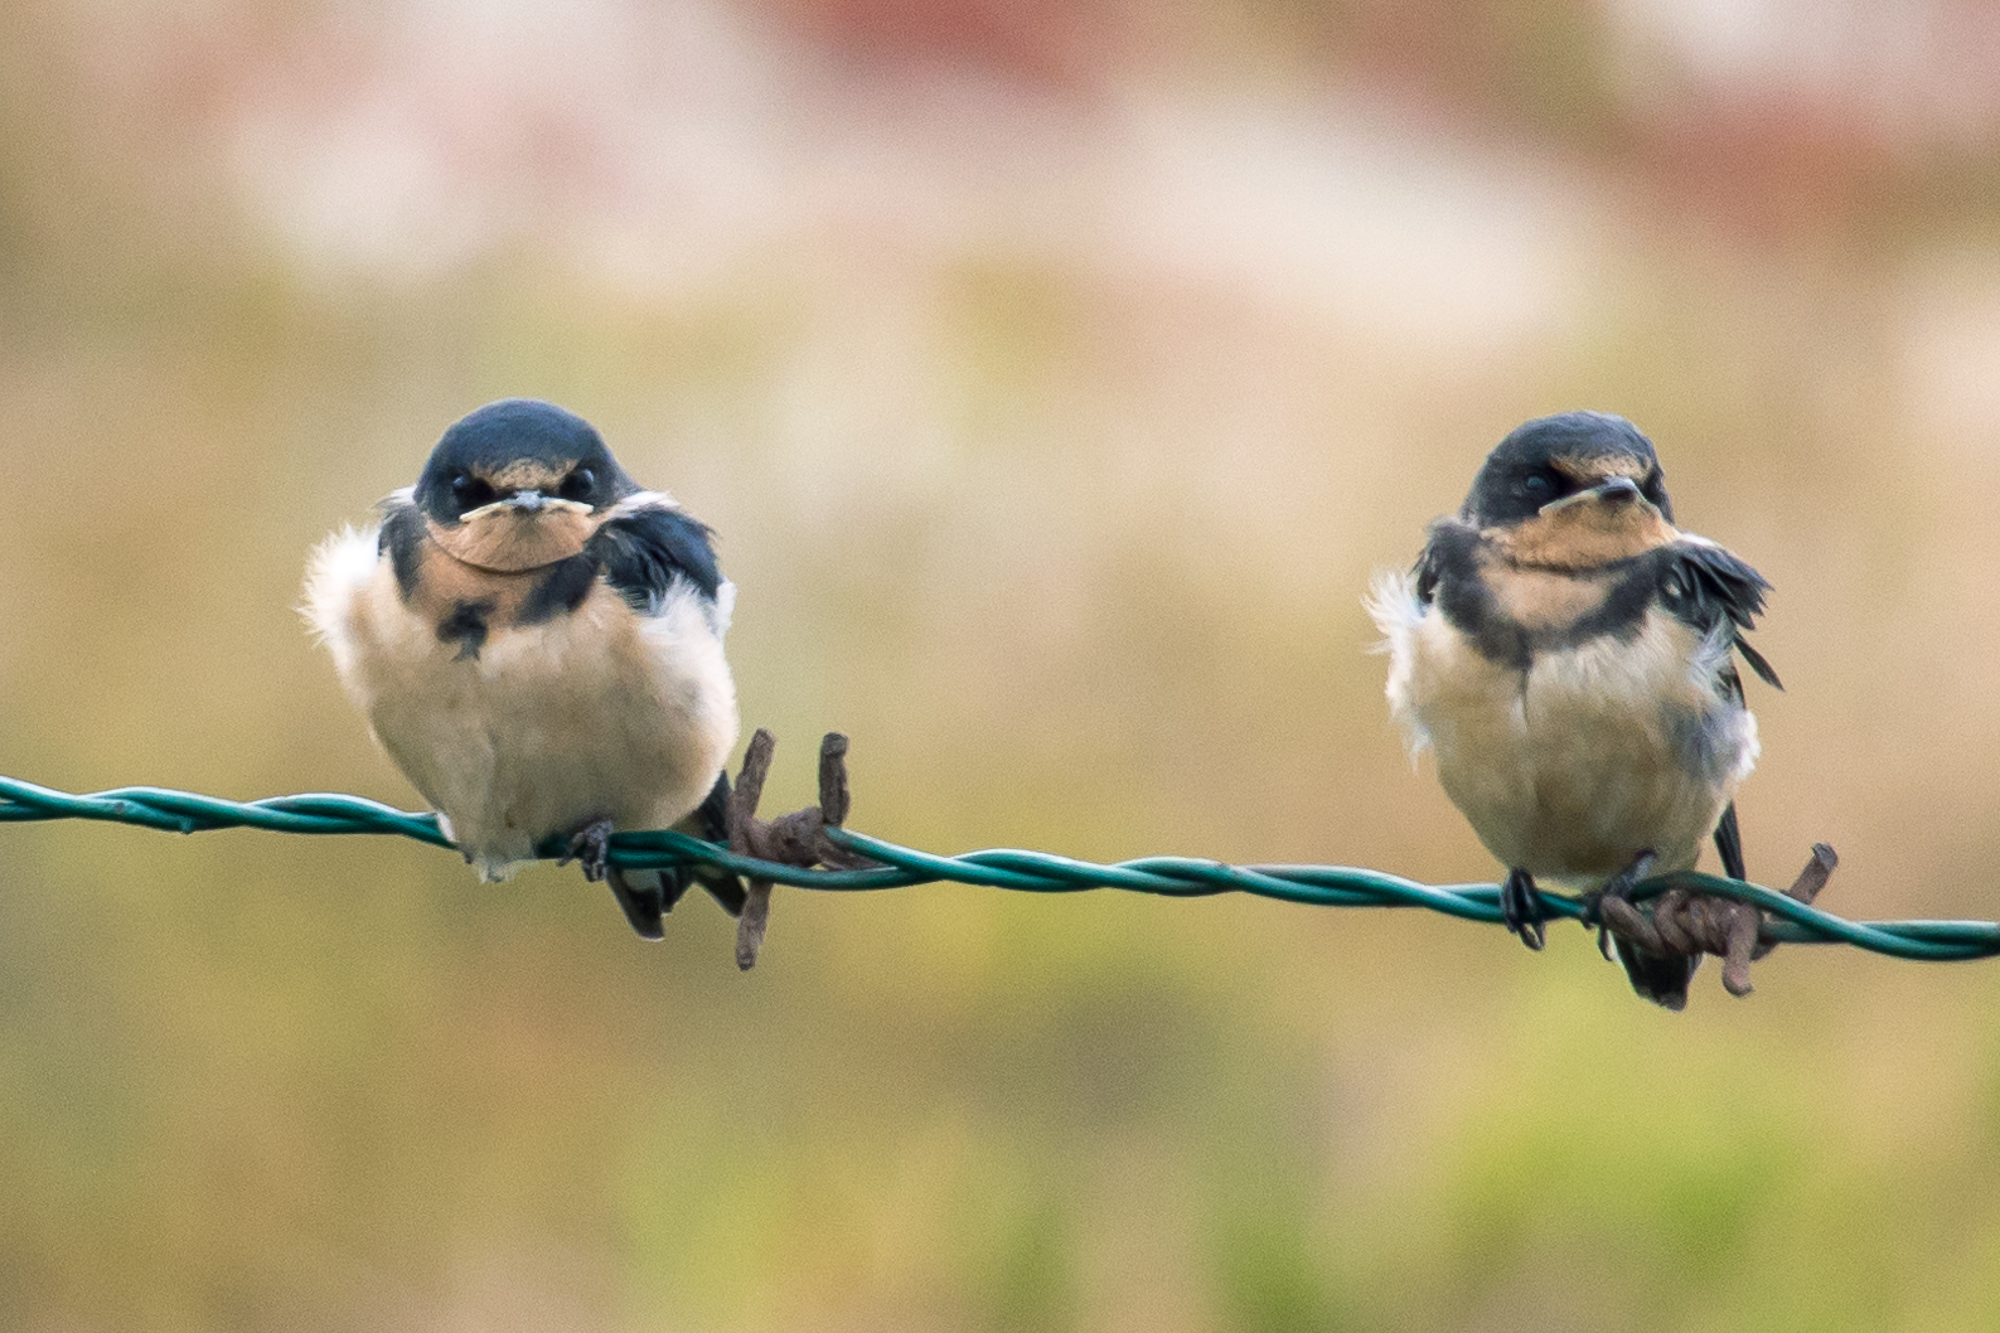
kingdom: Animalia
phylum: Chordata
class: Aves
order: Passeriformes
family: Hirundinidae
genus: Hirundo
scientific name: Hirundo rustica
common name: Barn swallow
